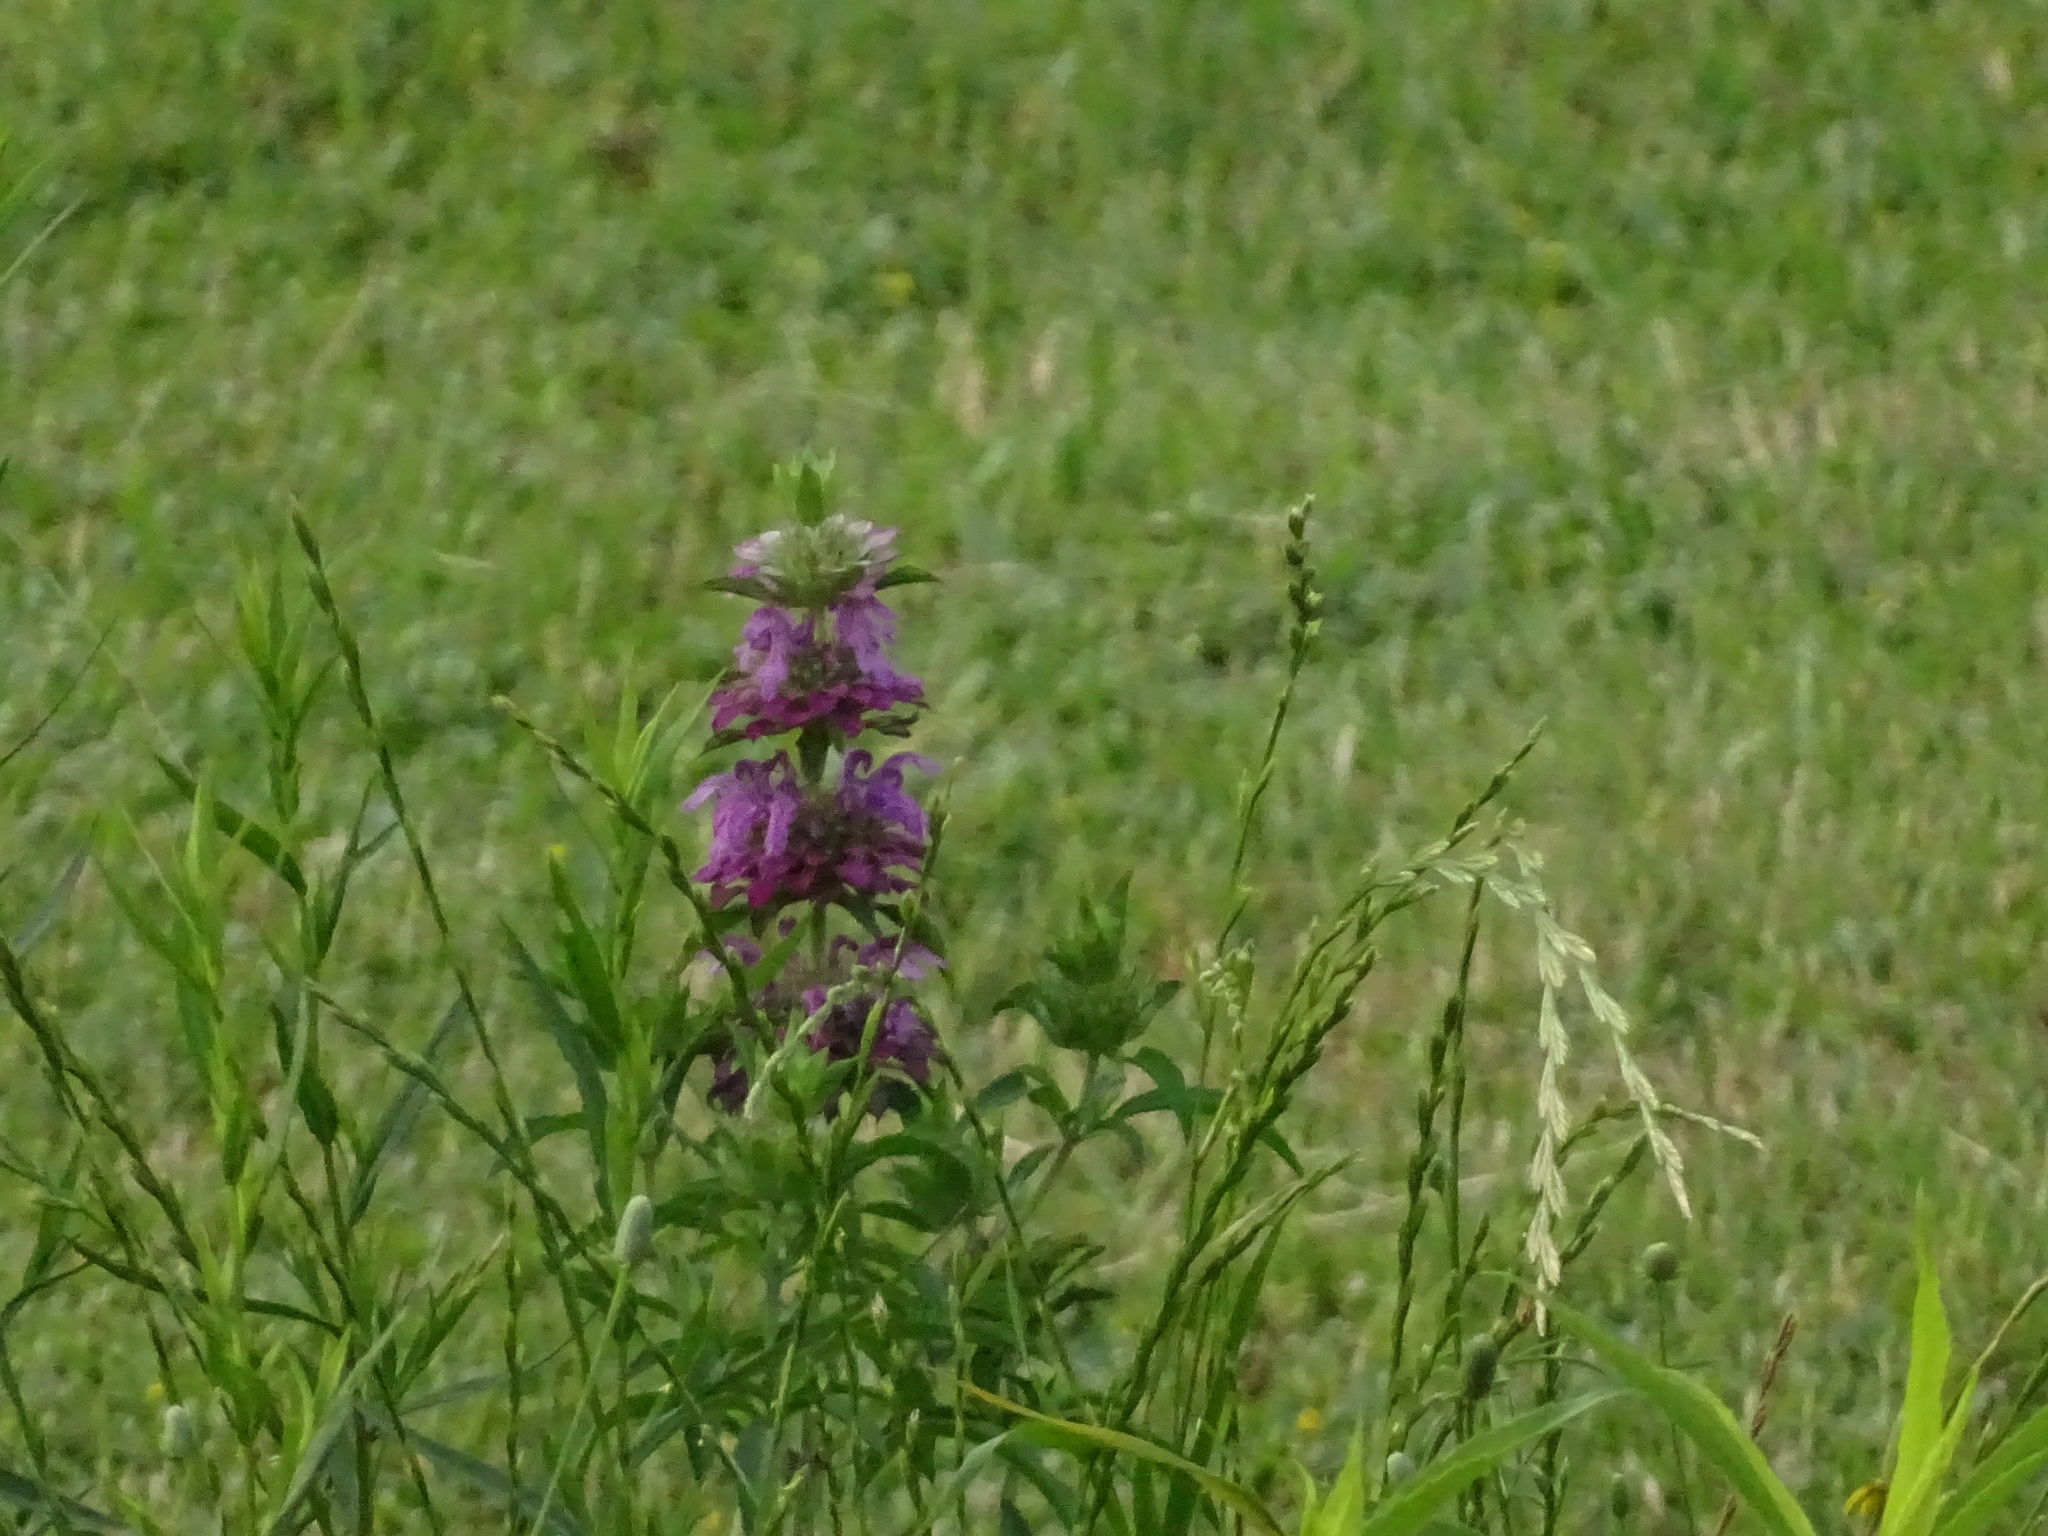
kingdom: Plantae
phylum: Tracheophyta
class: Magnoliopsida
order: Lamiales
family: Lamiaceae
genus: Monarda
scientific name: Monarda citriodora
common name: Lemon beebalm
